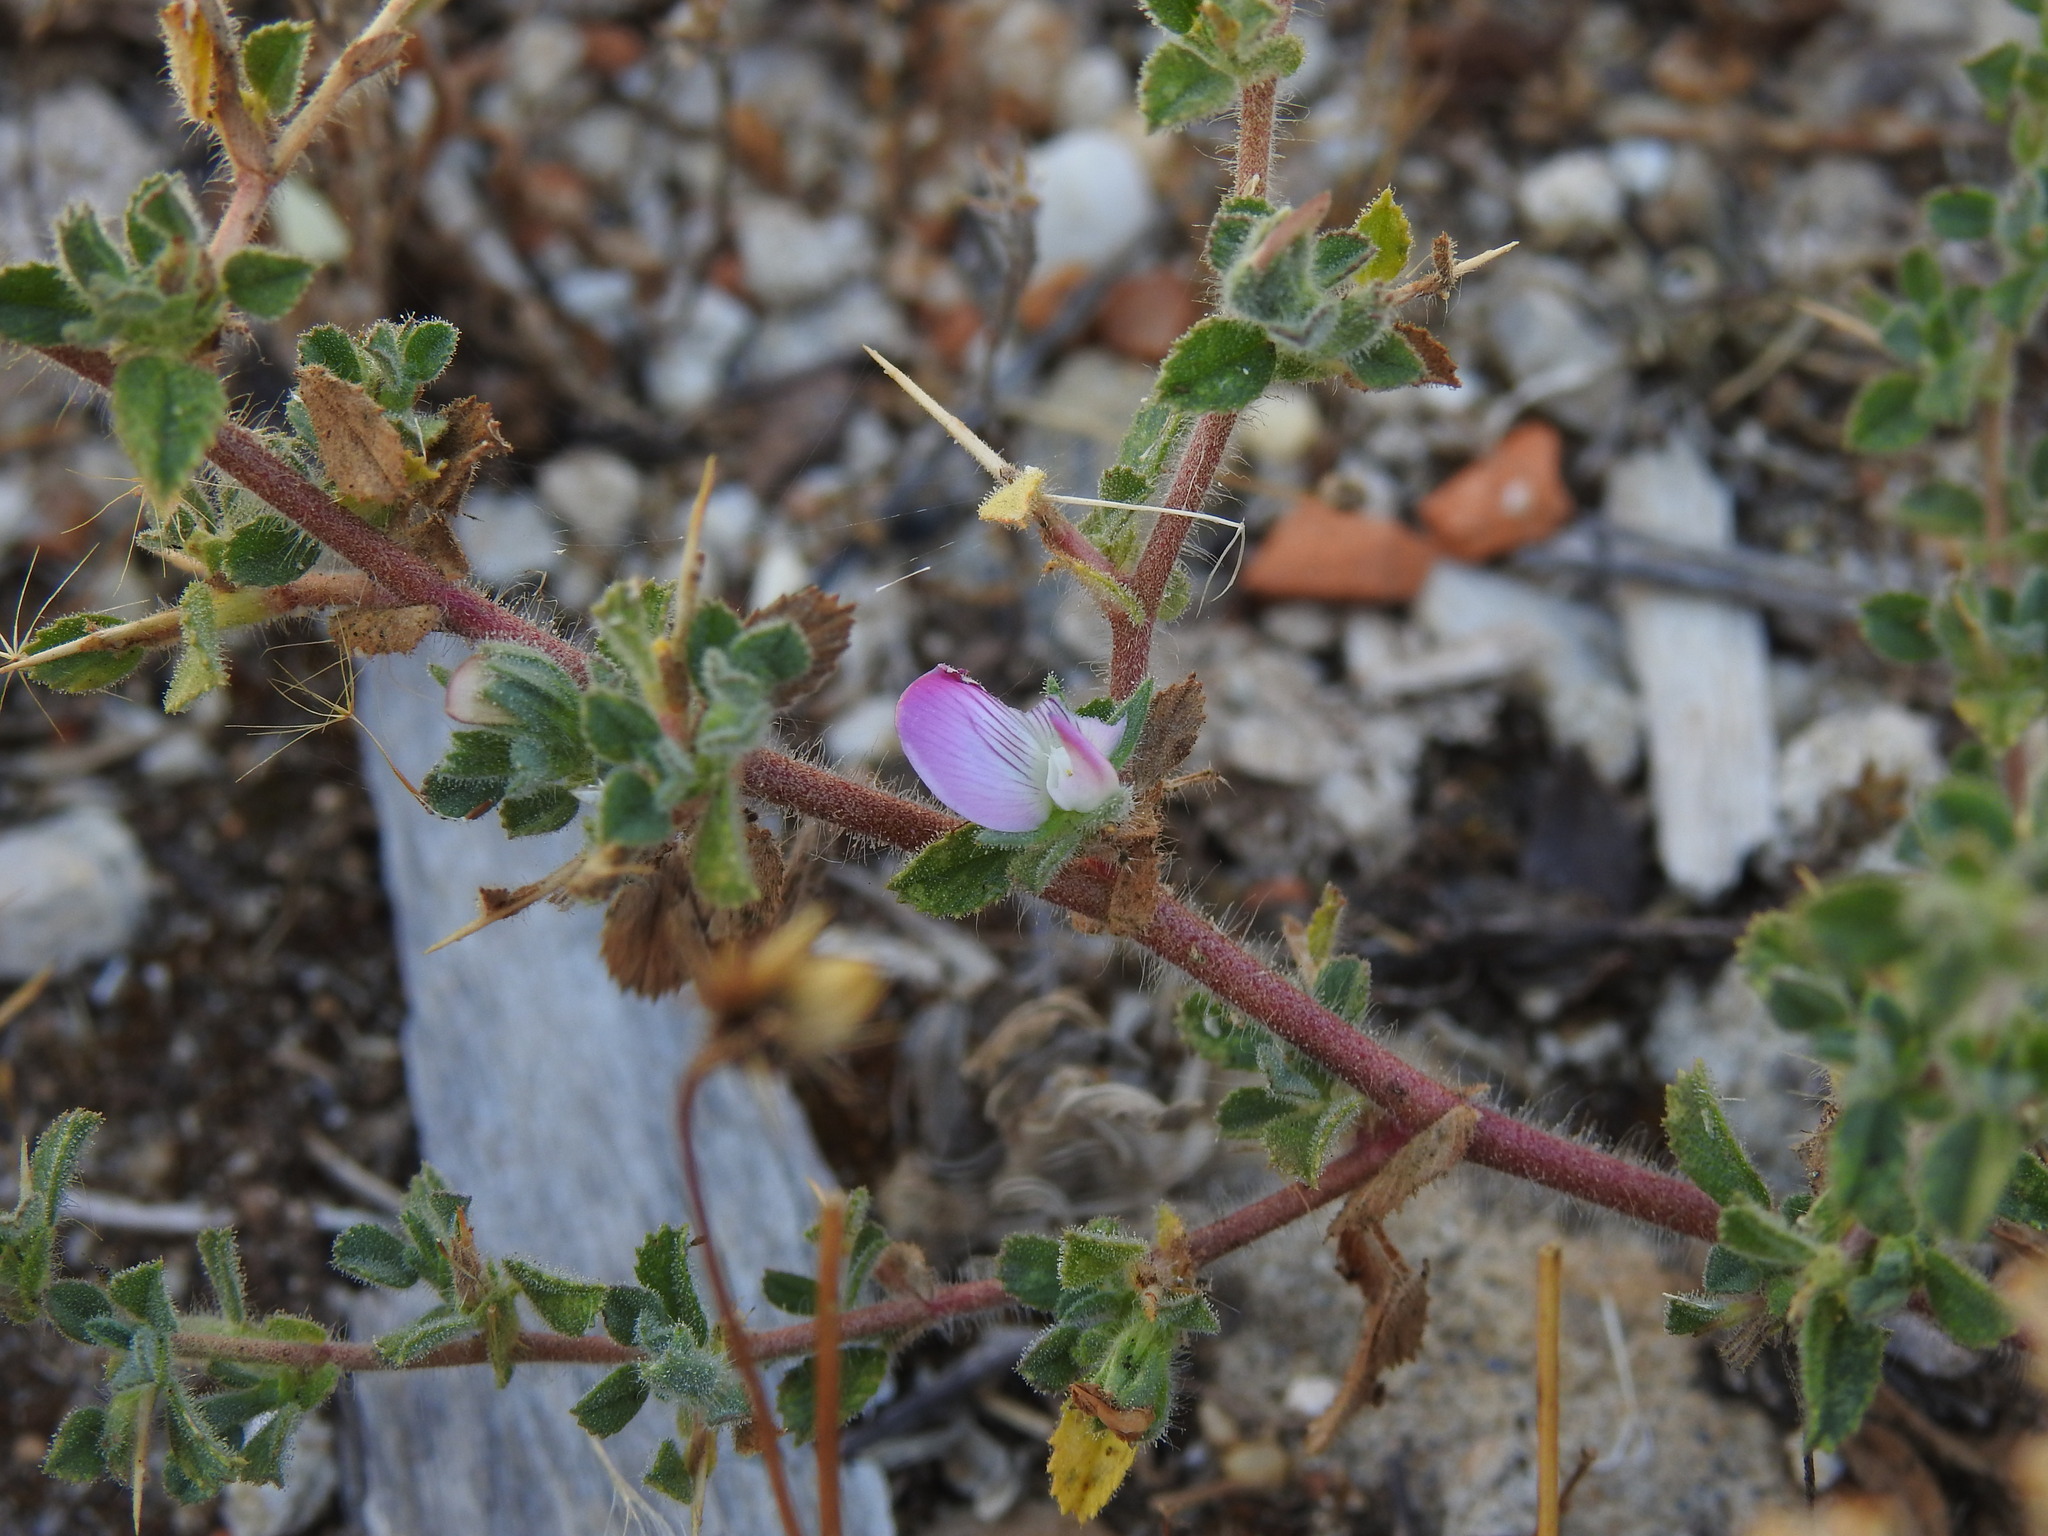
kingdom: Plantae
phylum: Tracheophyta
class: Magnoliopsida
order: Fabales
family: Fabaceae
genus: Ononis
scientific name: Ononis spinosa
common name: Spiny restharrow
